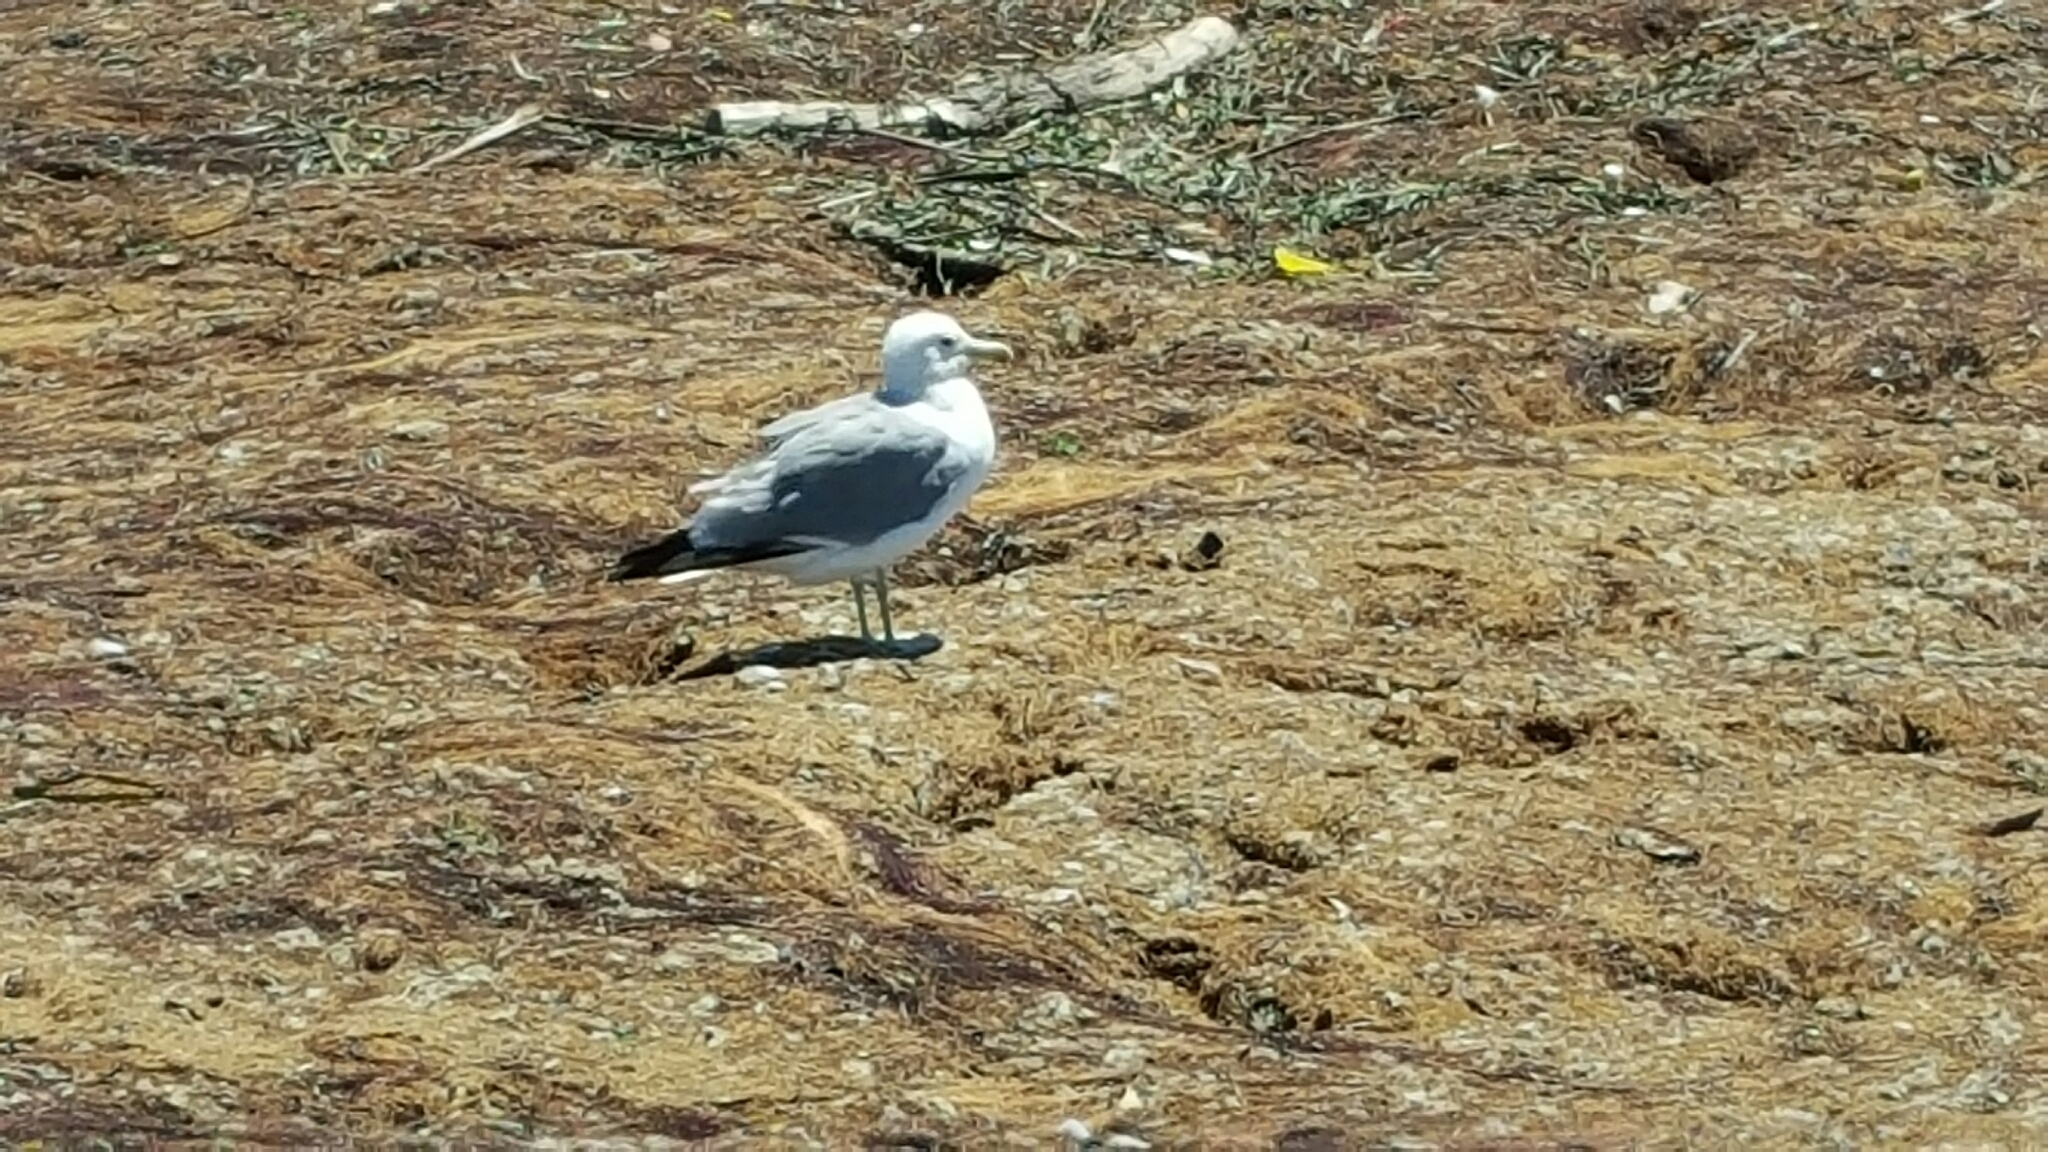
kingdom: Animalia
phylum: Chordata
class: Aves
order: Charadriiformes
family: Laridae
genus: Larus
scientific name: Larus californicus
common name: California gull
